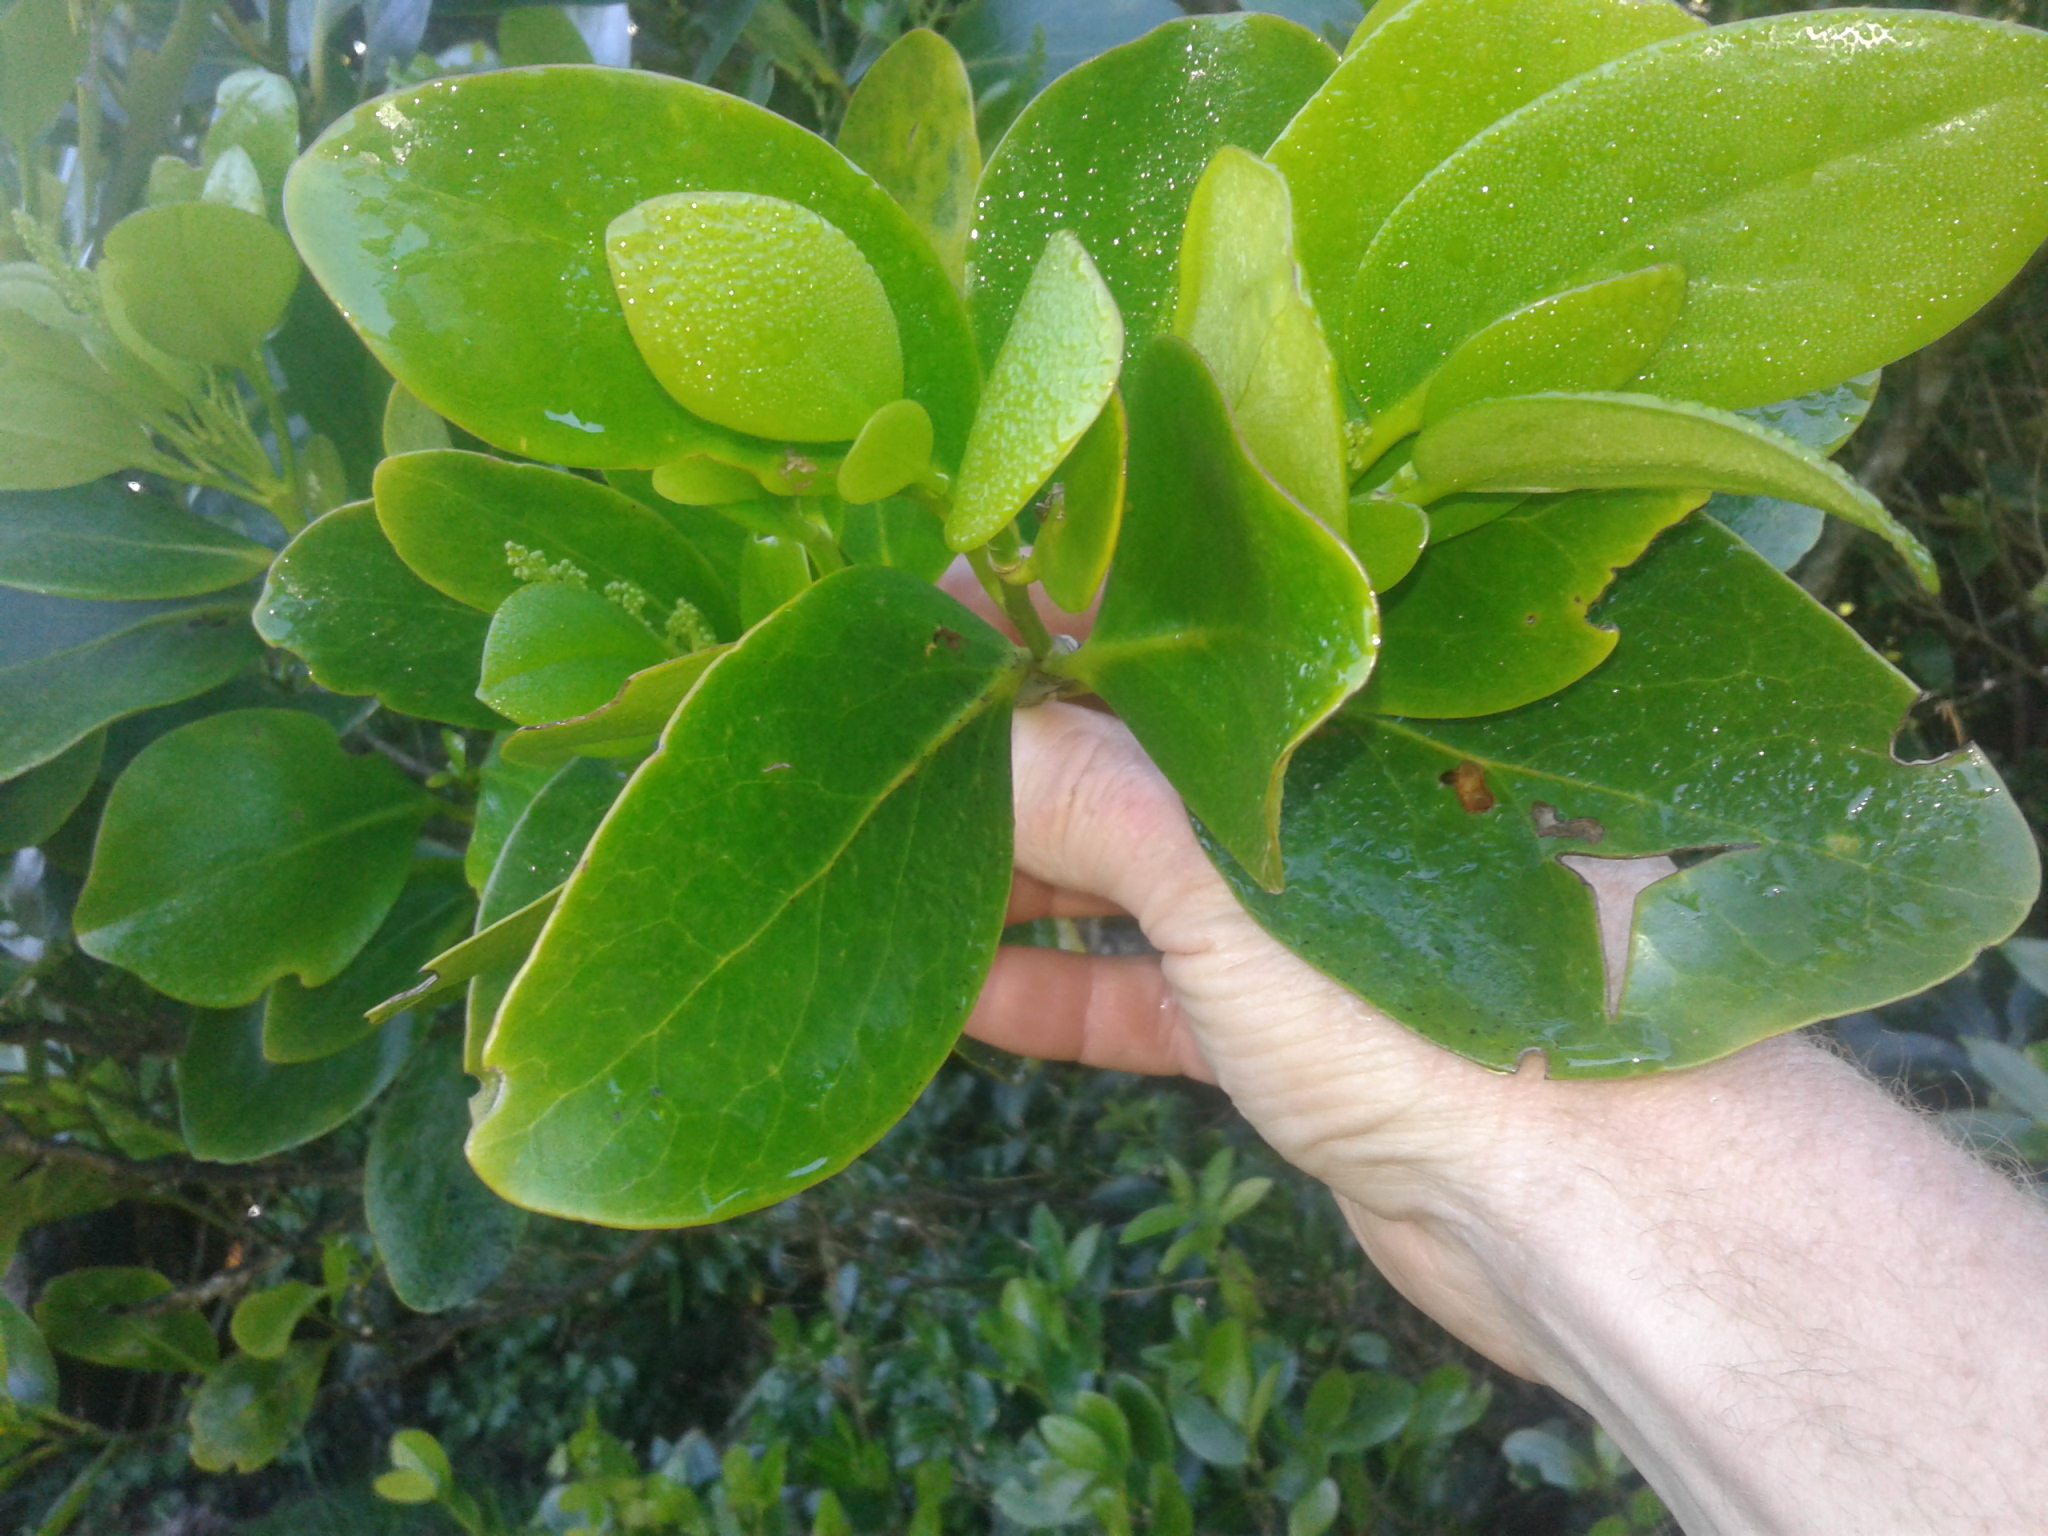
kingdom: Plantae
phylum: Tracheophyta
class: Magnoliopsida
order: Apiales
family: Griseliniaceae
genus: Griselinia
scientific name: Griselinia lucida
